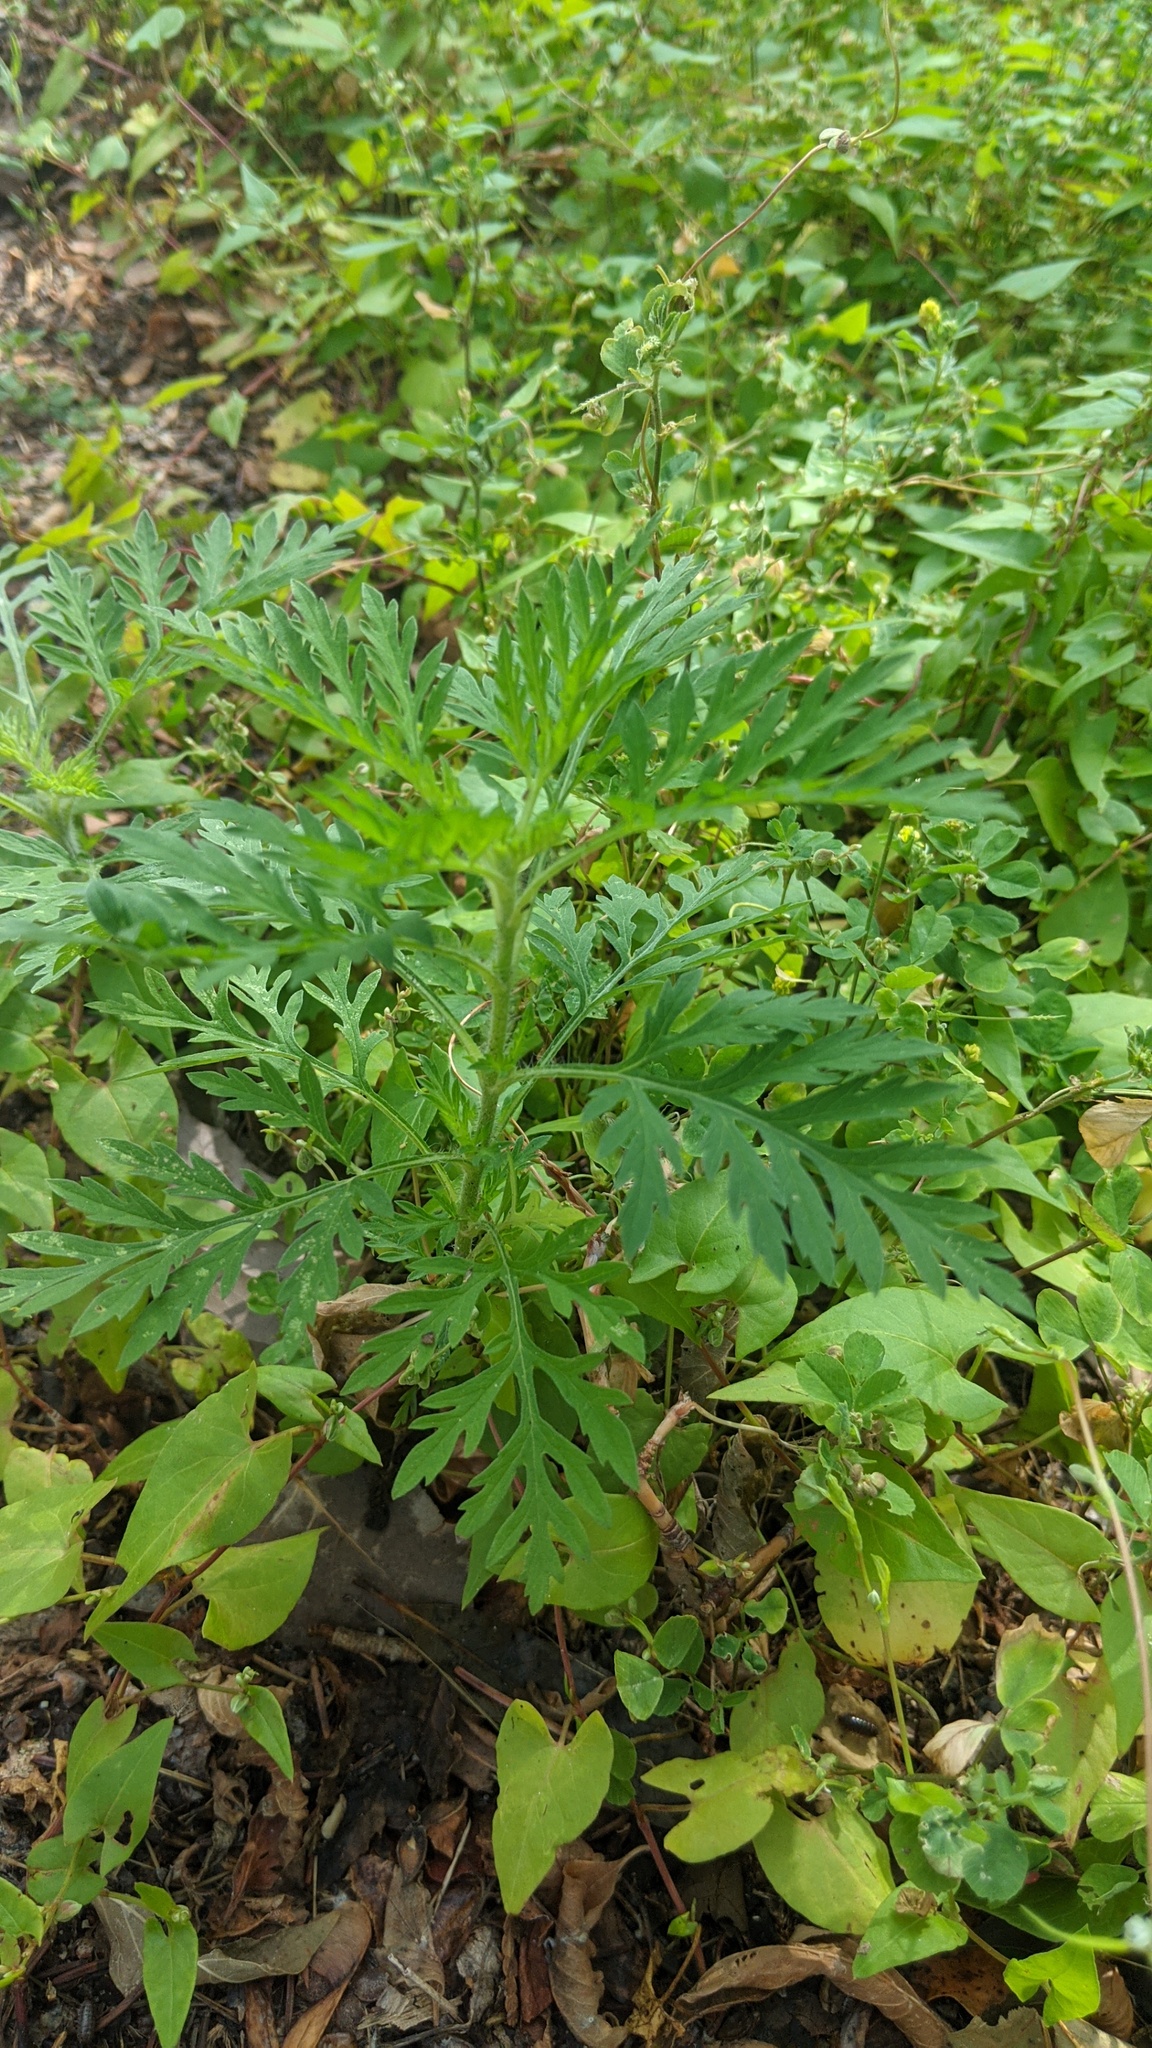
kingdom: Plantae
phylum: Tracheophyta
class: Magnoliopsida
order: Asterales
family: Asteraceae
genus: Ambrosia
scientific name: Ambrosia artemisiifolia
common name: Annual ragweed
